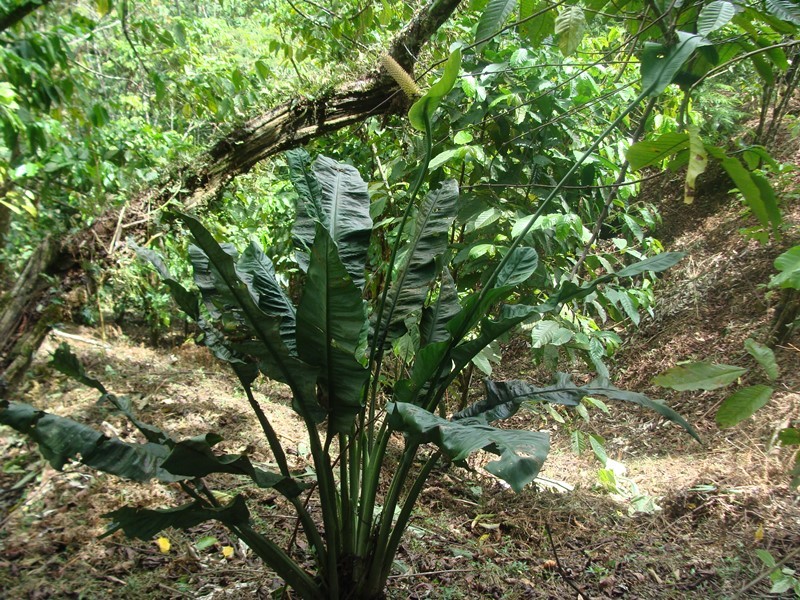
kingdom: Plantae
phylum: Tracheophyta
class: Liliopsida
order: Alismatales
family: Araceae
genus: Spathiphyllum
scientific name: Spathiphyllum friedrichsthalii
